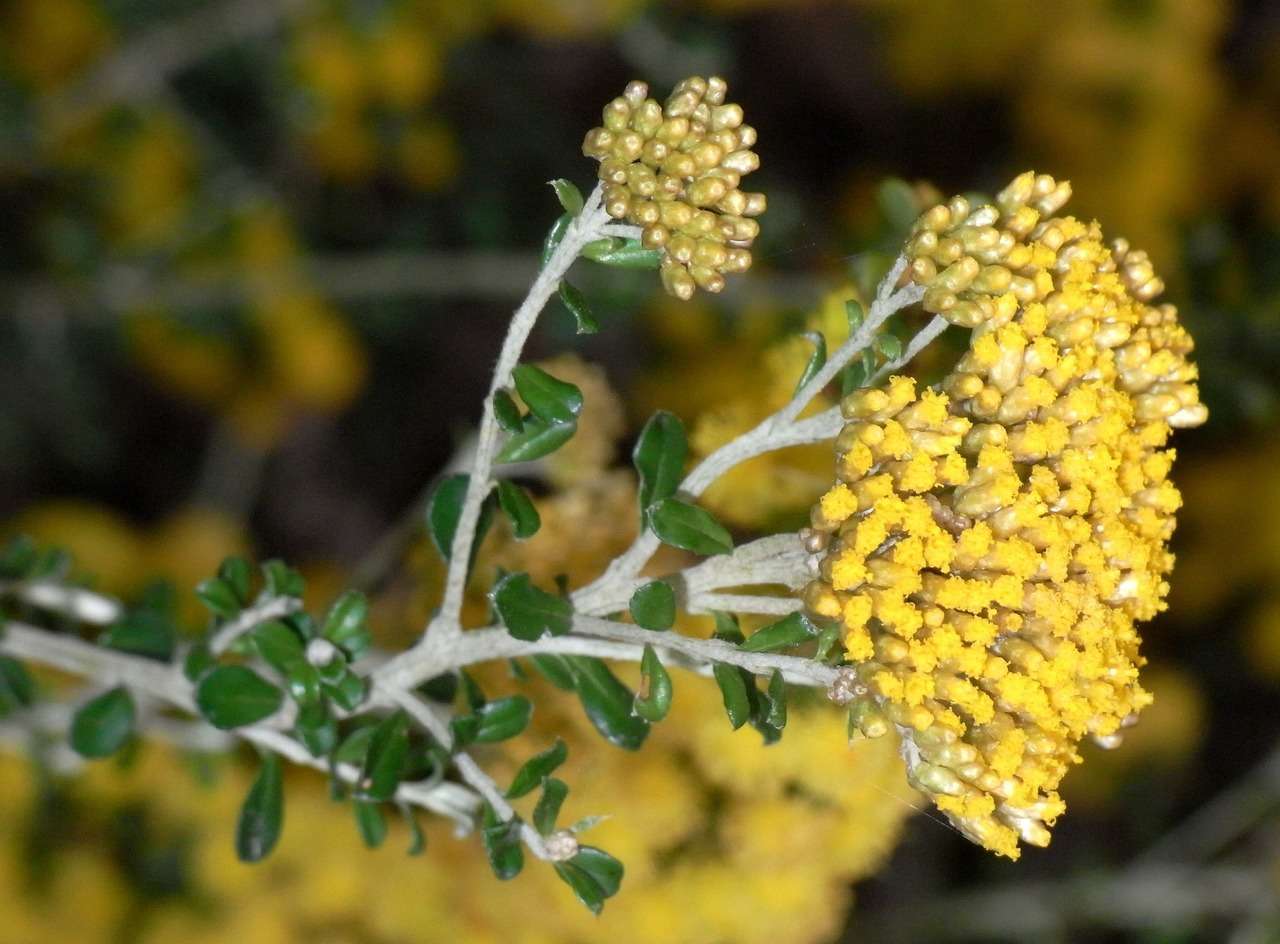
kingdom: Plantae
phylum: Tracheophyta
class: Magnoliopsida
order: Asterales
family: Asteraceae
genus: Ozothamnus
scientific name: Ozothamnus obcordatus
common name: Grey everlasting
